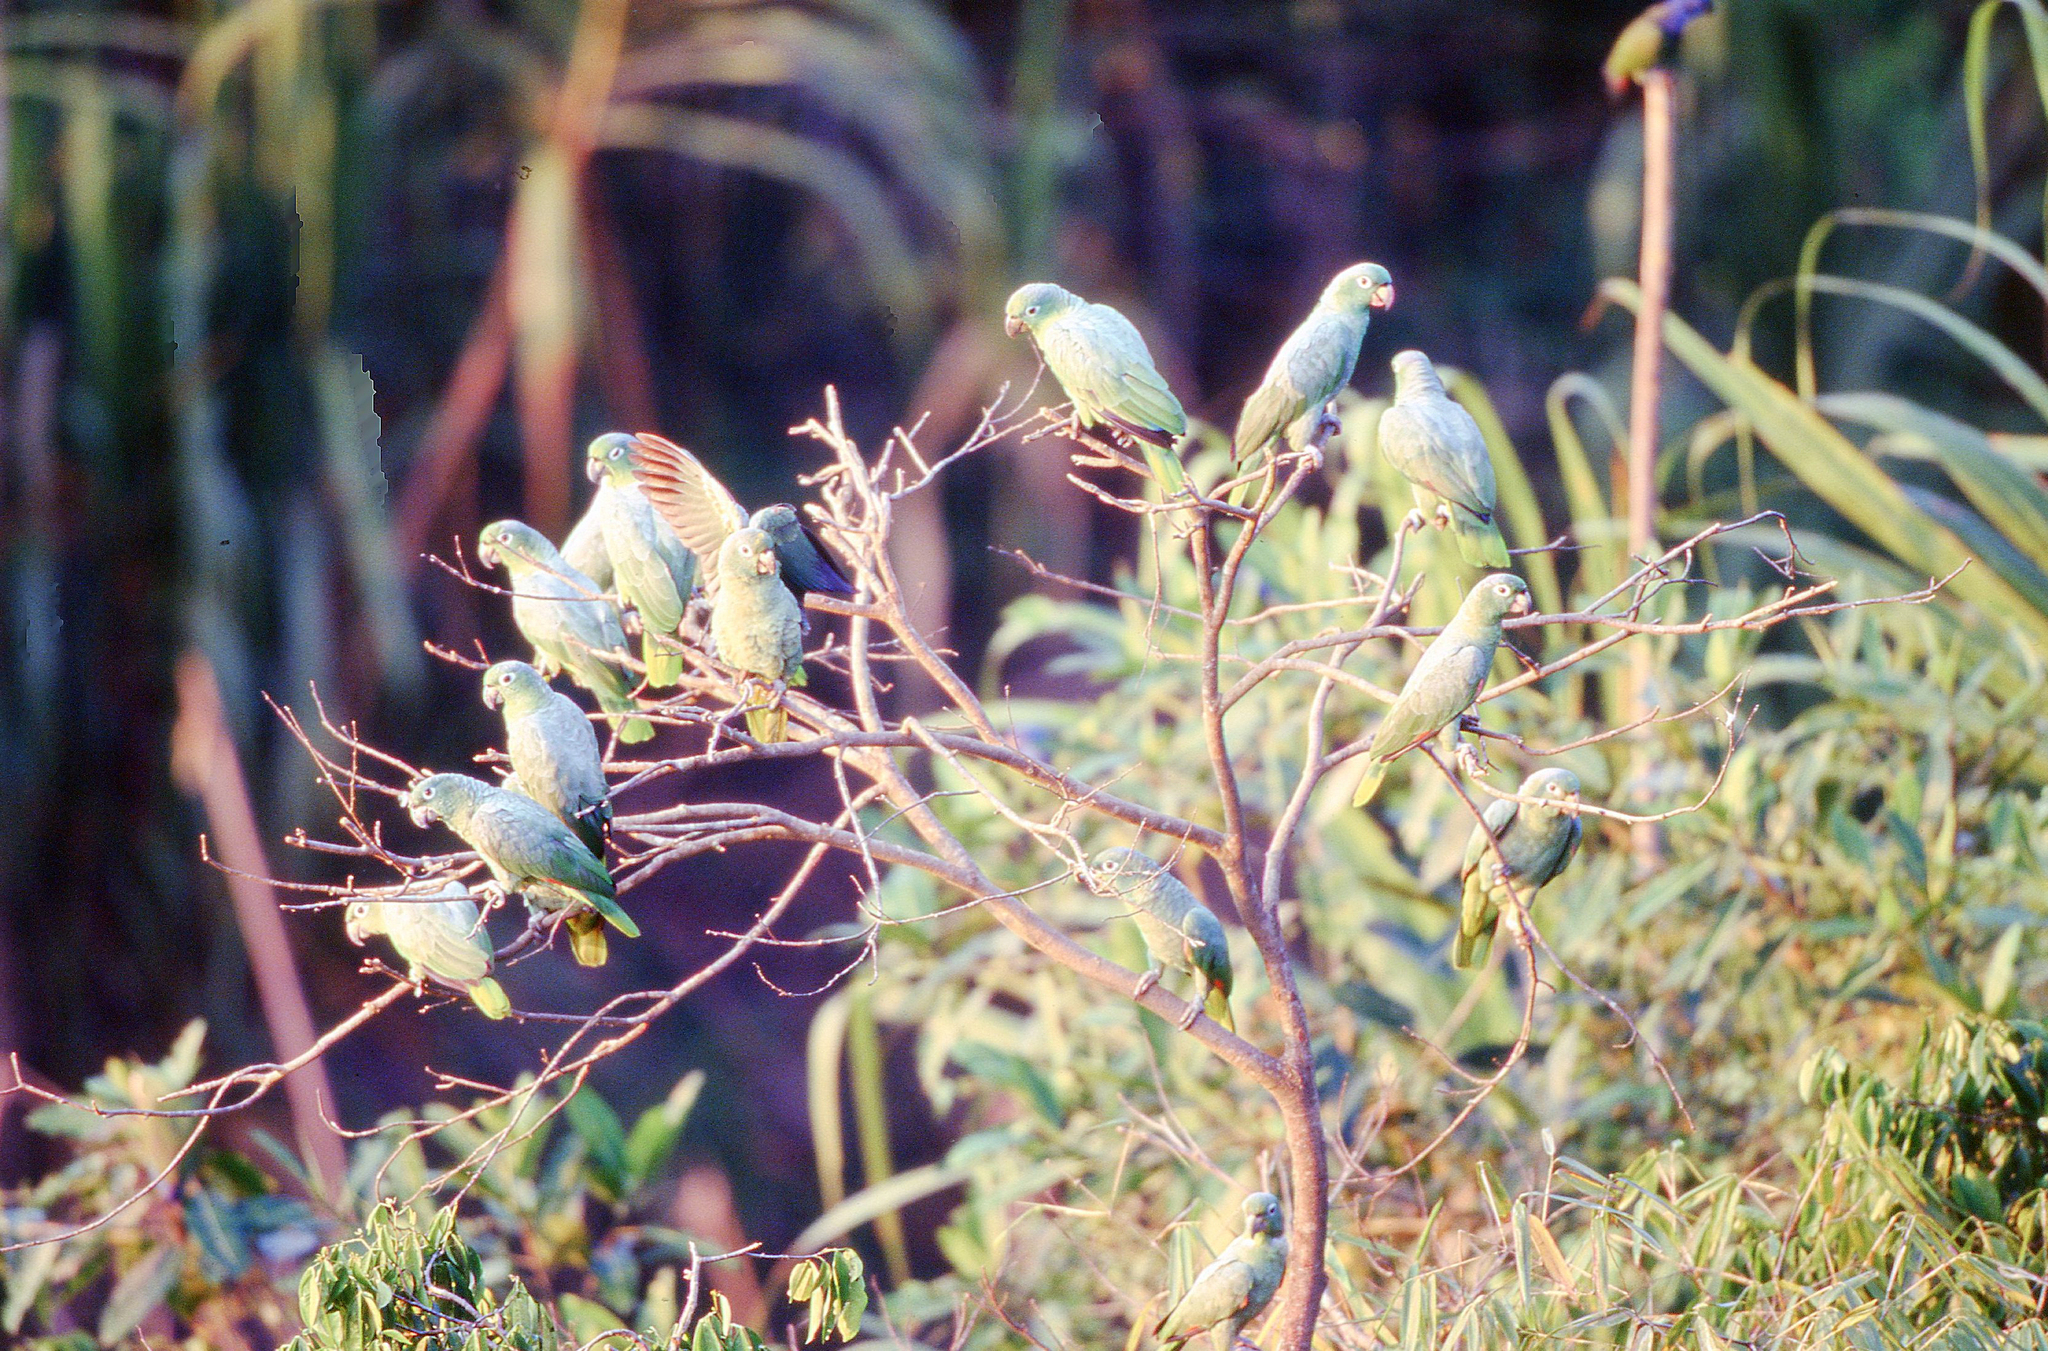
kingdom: Animalia
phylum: Chordata
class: Aves
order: Psittaciformes
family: Psittacidae
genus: Amazona
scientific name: Amazona farinosa
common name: Mealy parrot
